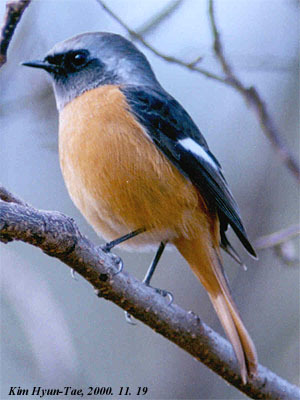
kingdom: Animalia
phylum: Chordata
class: Aves
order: Passeriformes
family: Muscicapidae
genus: Phoenicurus
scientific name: Phoenicurus auroreus
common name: Daurian redstart
